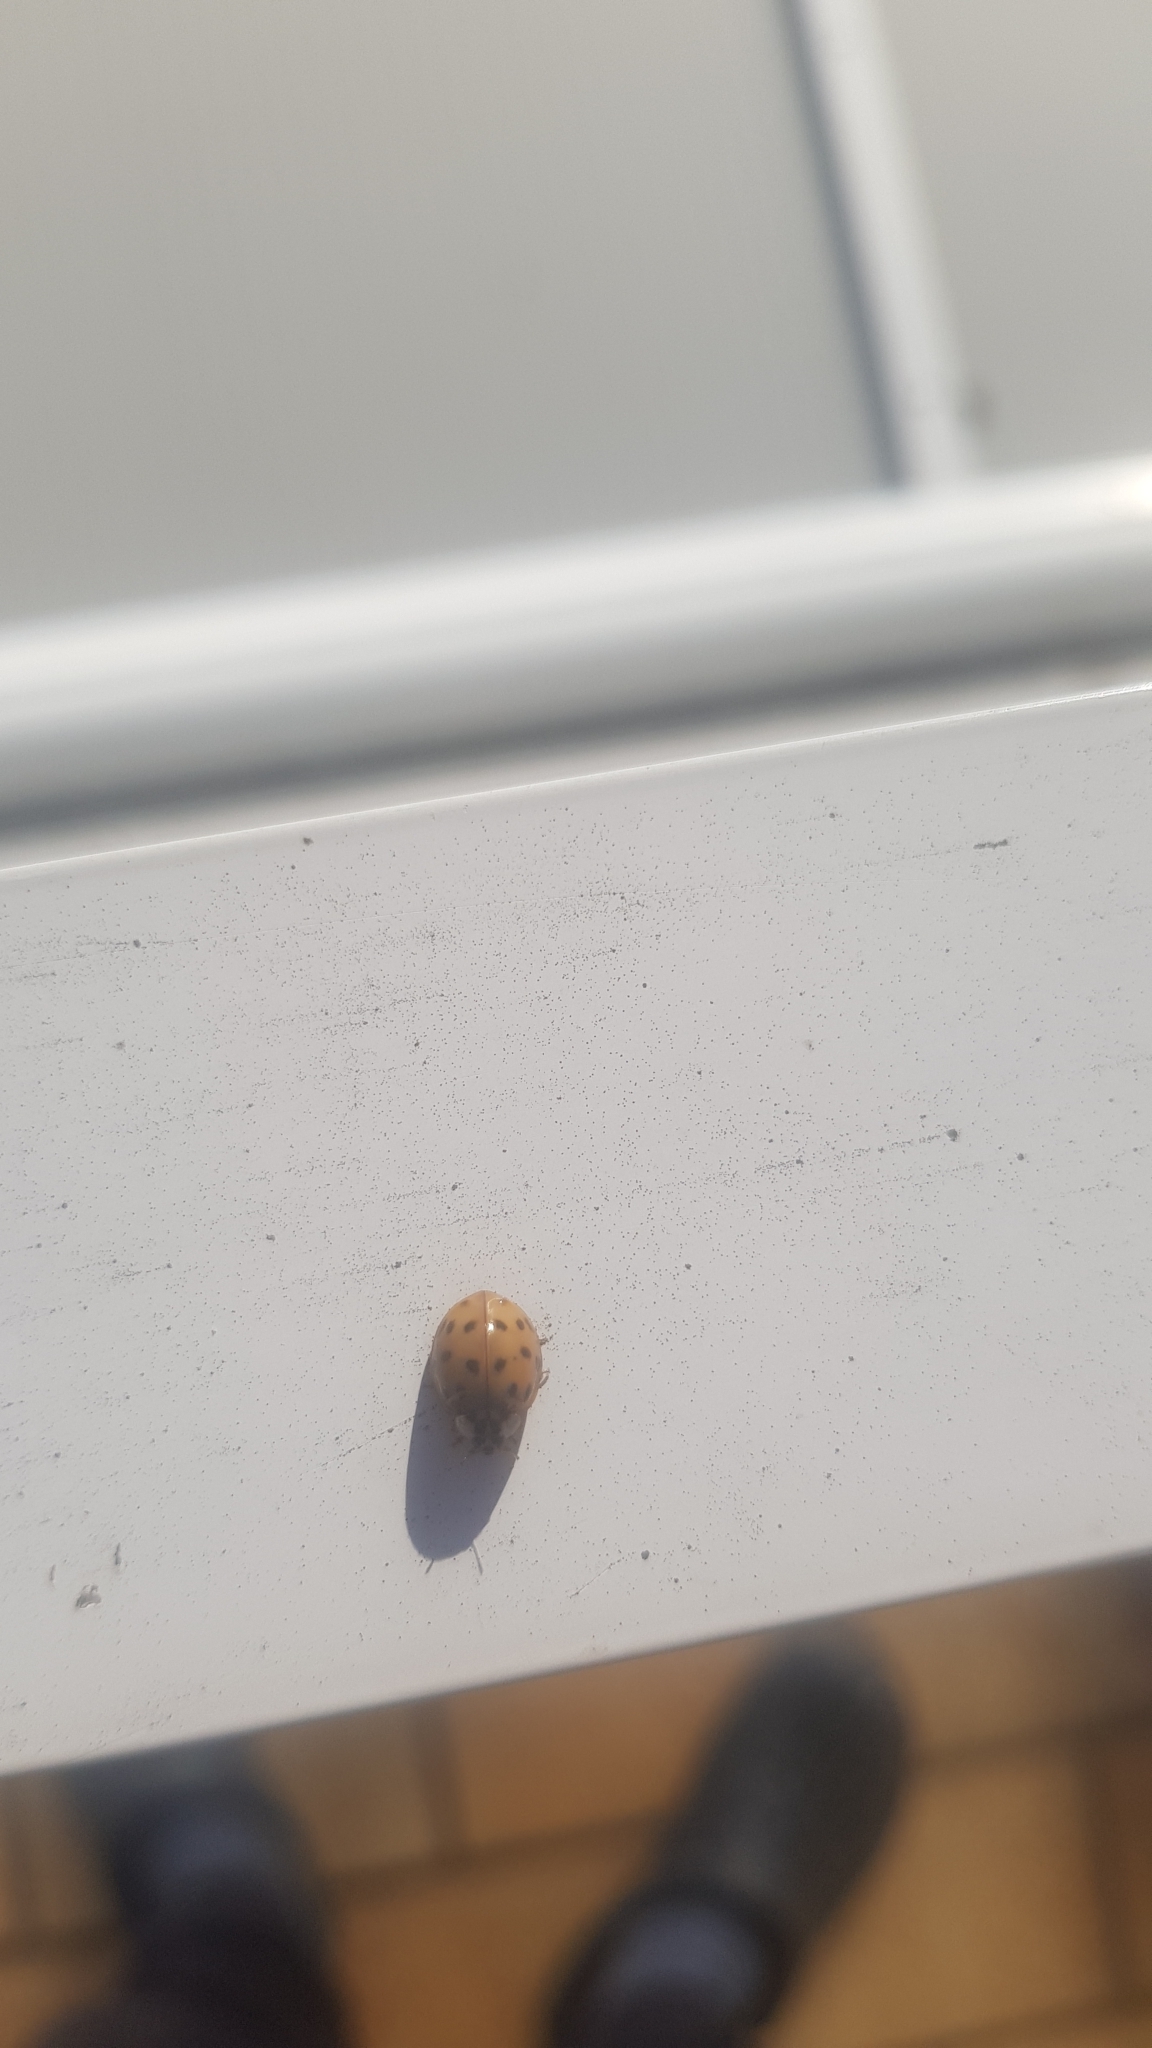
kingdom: Animalia
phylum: Arthropoda
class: Insecta
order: Coleoptera
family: Coccinellidae
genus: Harmonia
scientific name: Harmonia axyridis
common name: Harlequin ladybird
